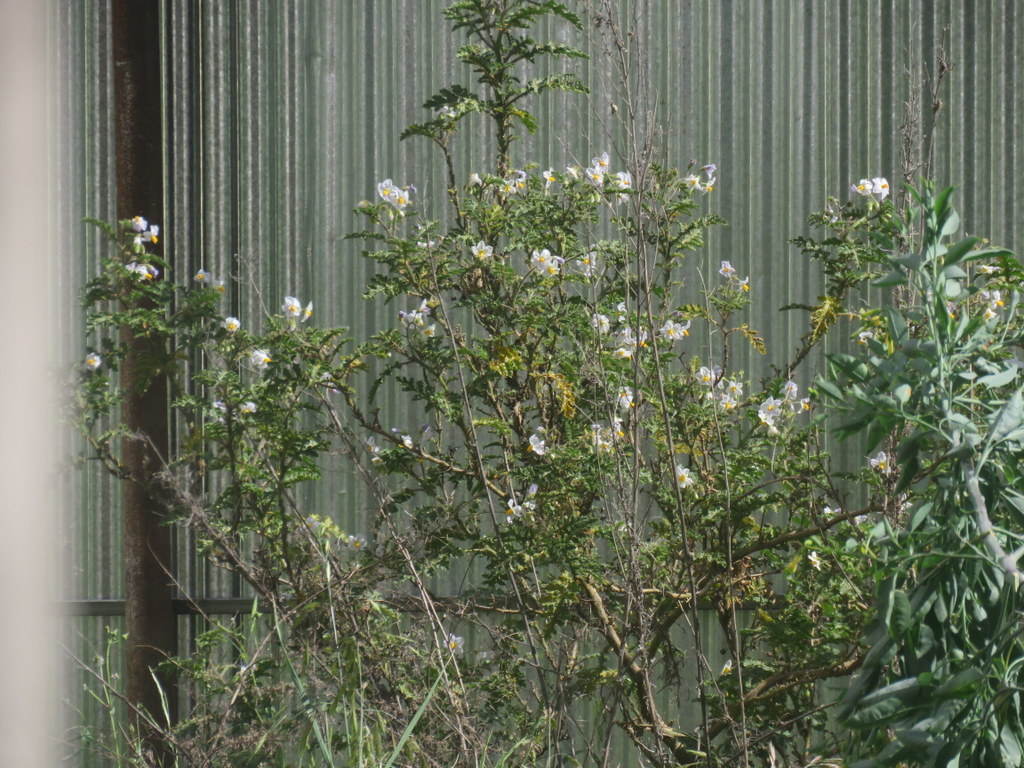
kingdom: Plantae
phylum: Tracheophyta
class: Magnoliopsida
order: Solanales
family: Solanaceae
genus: Solanum
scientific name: Solanum sisymbriifolium
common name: Red buffalo-bur
